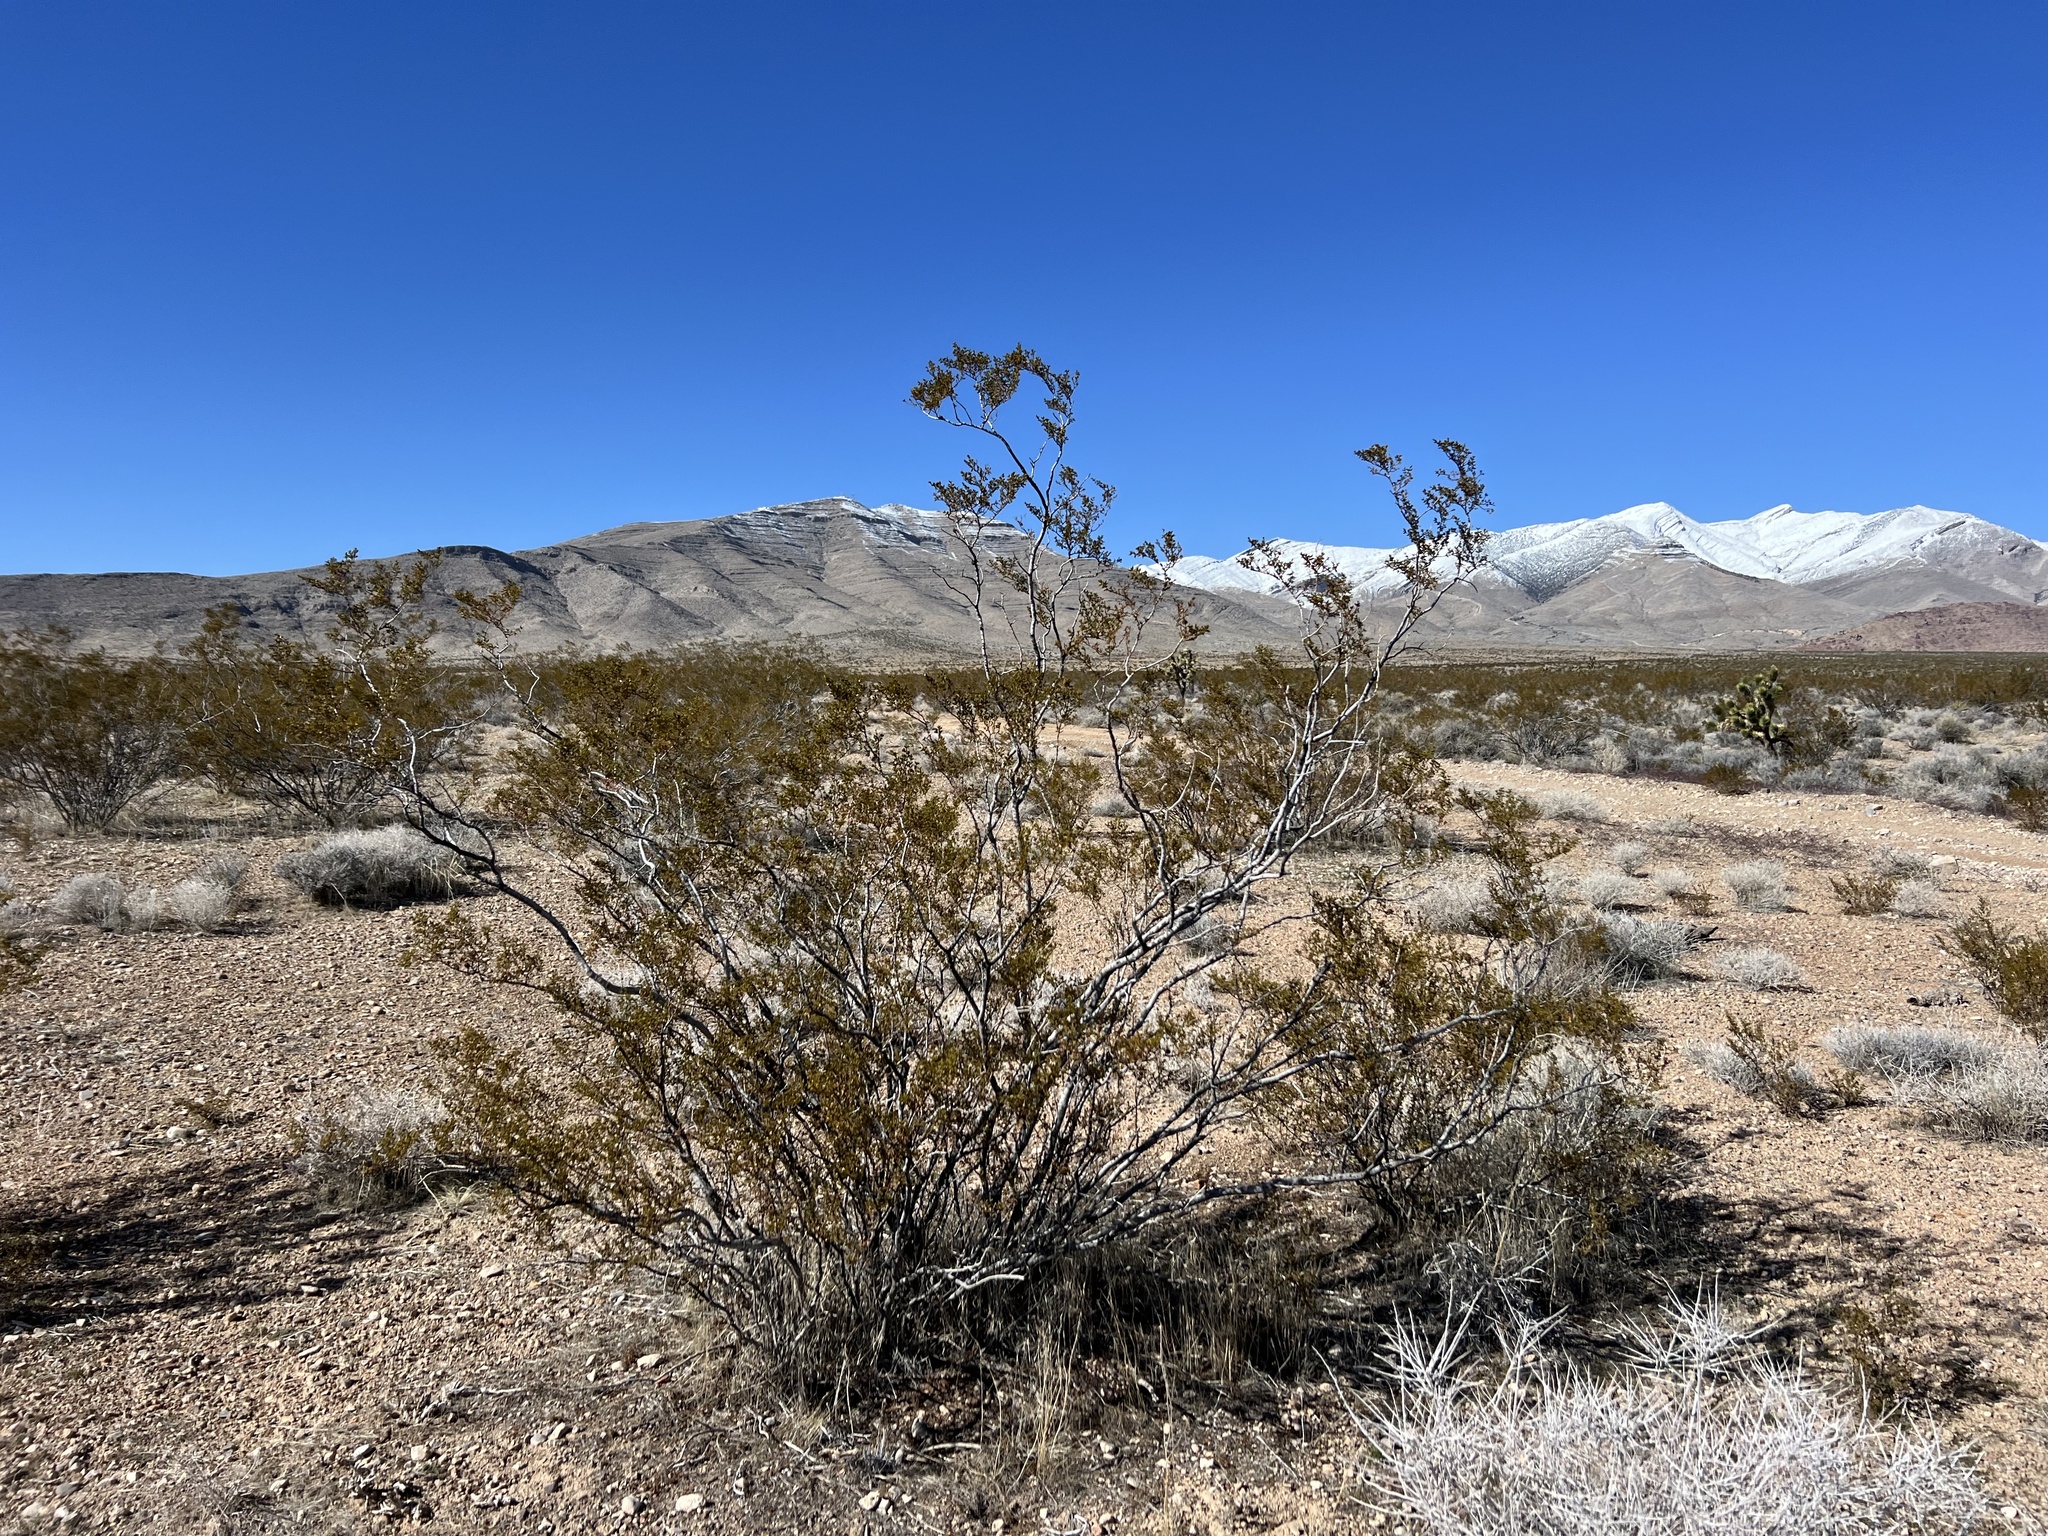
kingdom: Plantae
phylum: Tracheophyta
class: Magnoliopsida
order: Zygophyllales
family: Zygophyllaceae
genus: Larrea
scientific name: Larrea tridentata
